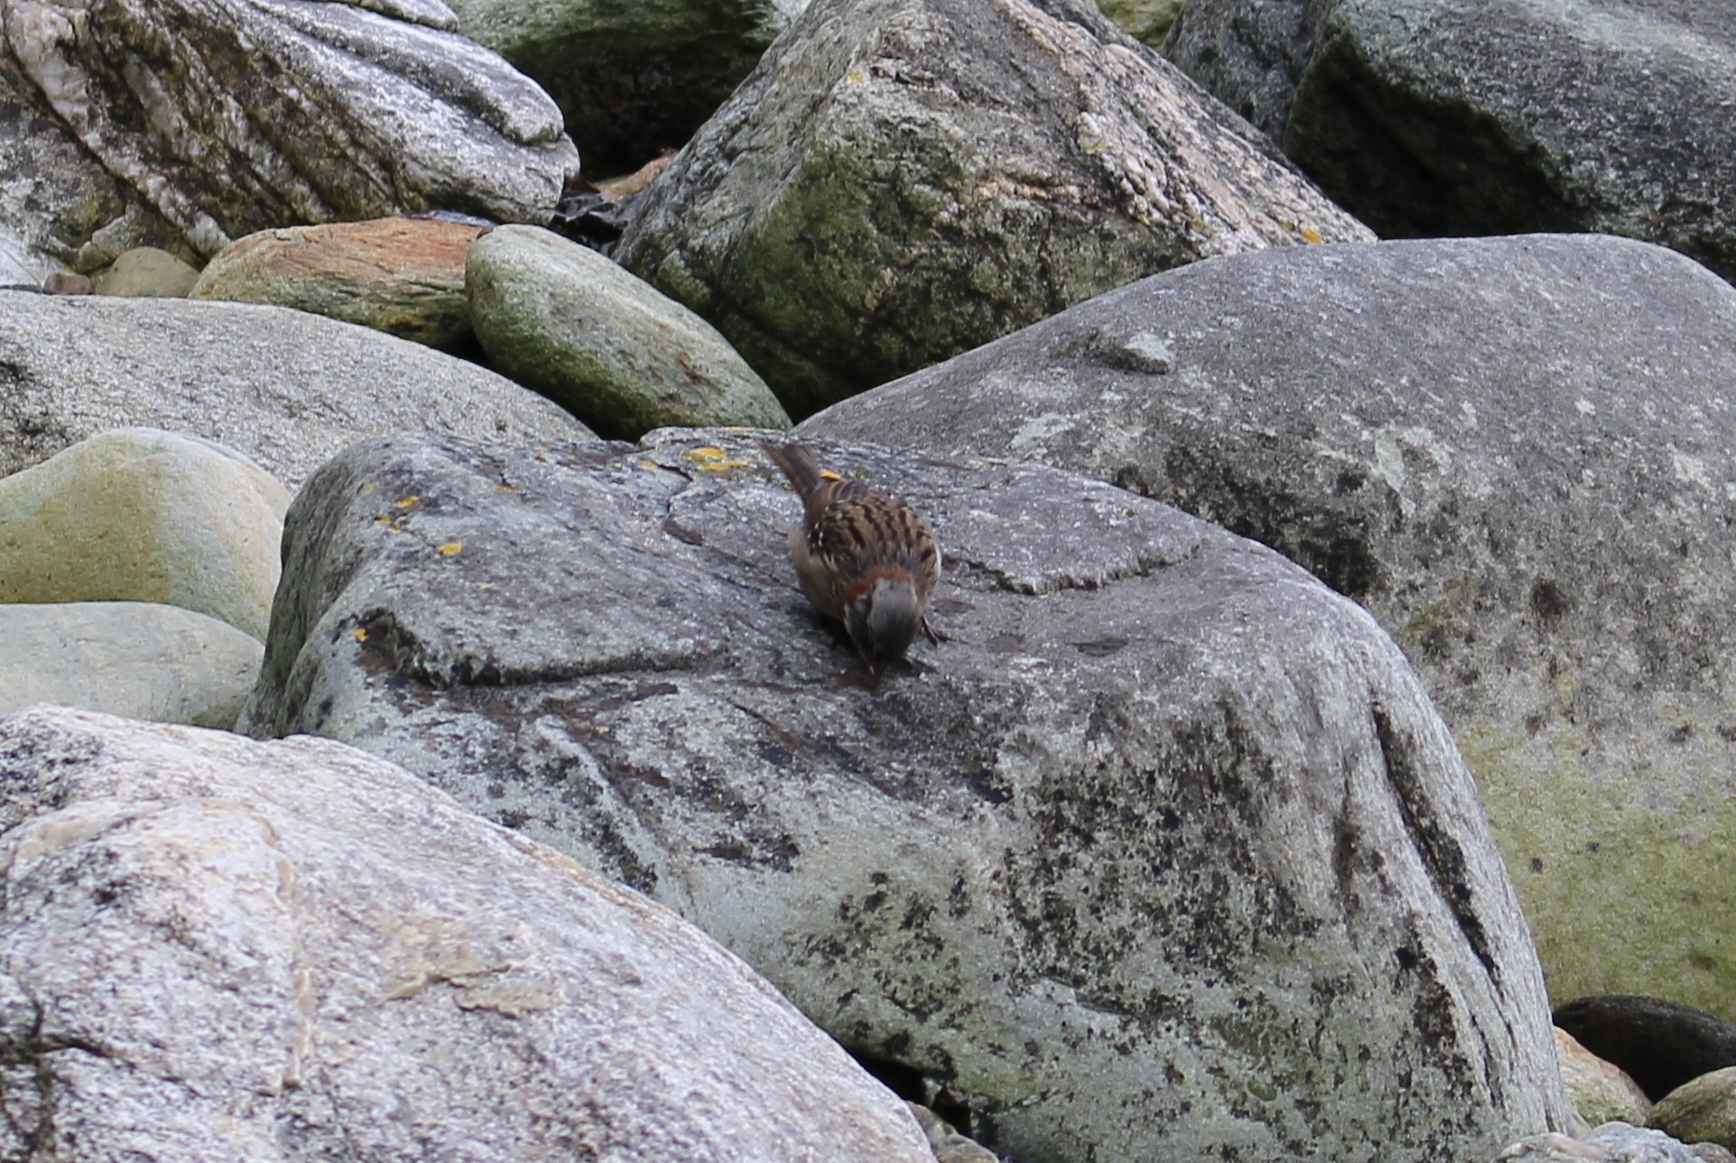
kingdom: Animalia
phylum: Chordata
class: Aves
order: Passeriformes
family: Passerellidae
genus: Zonotrichia
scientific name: Zonotrichia capensis
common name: Rufous-collared sparrow
